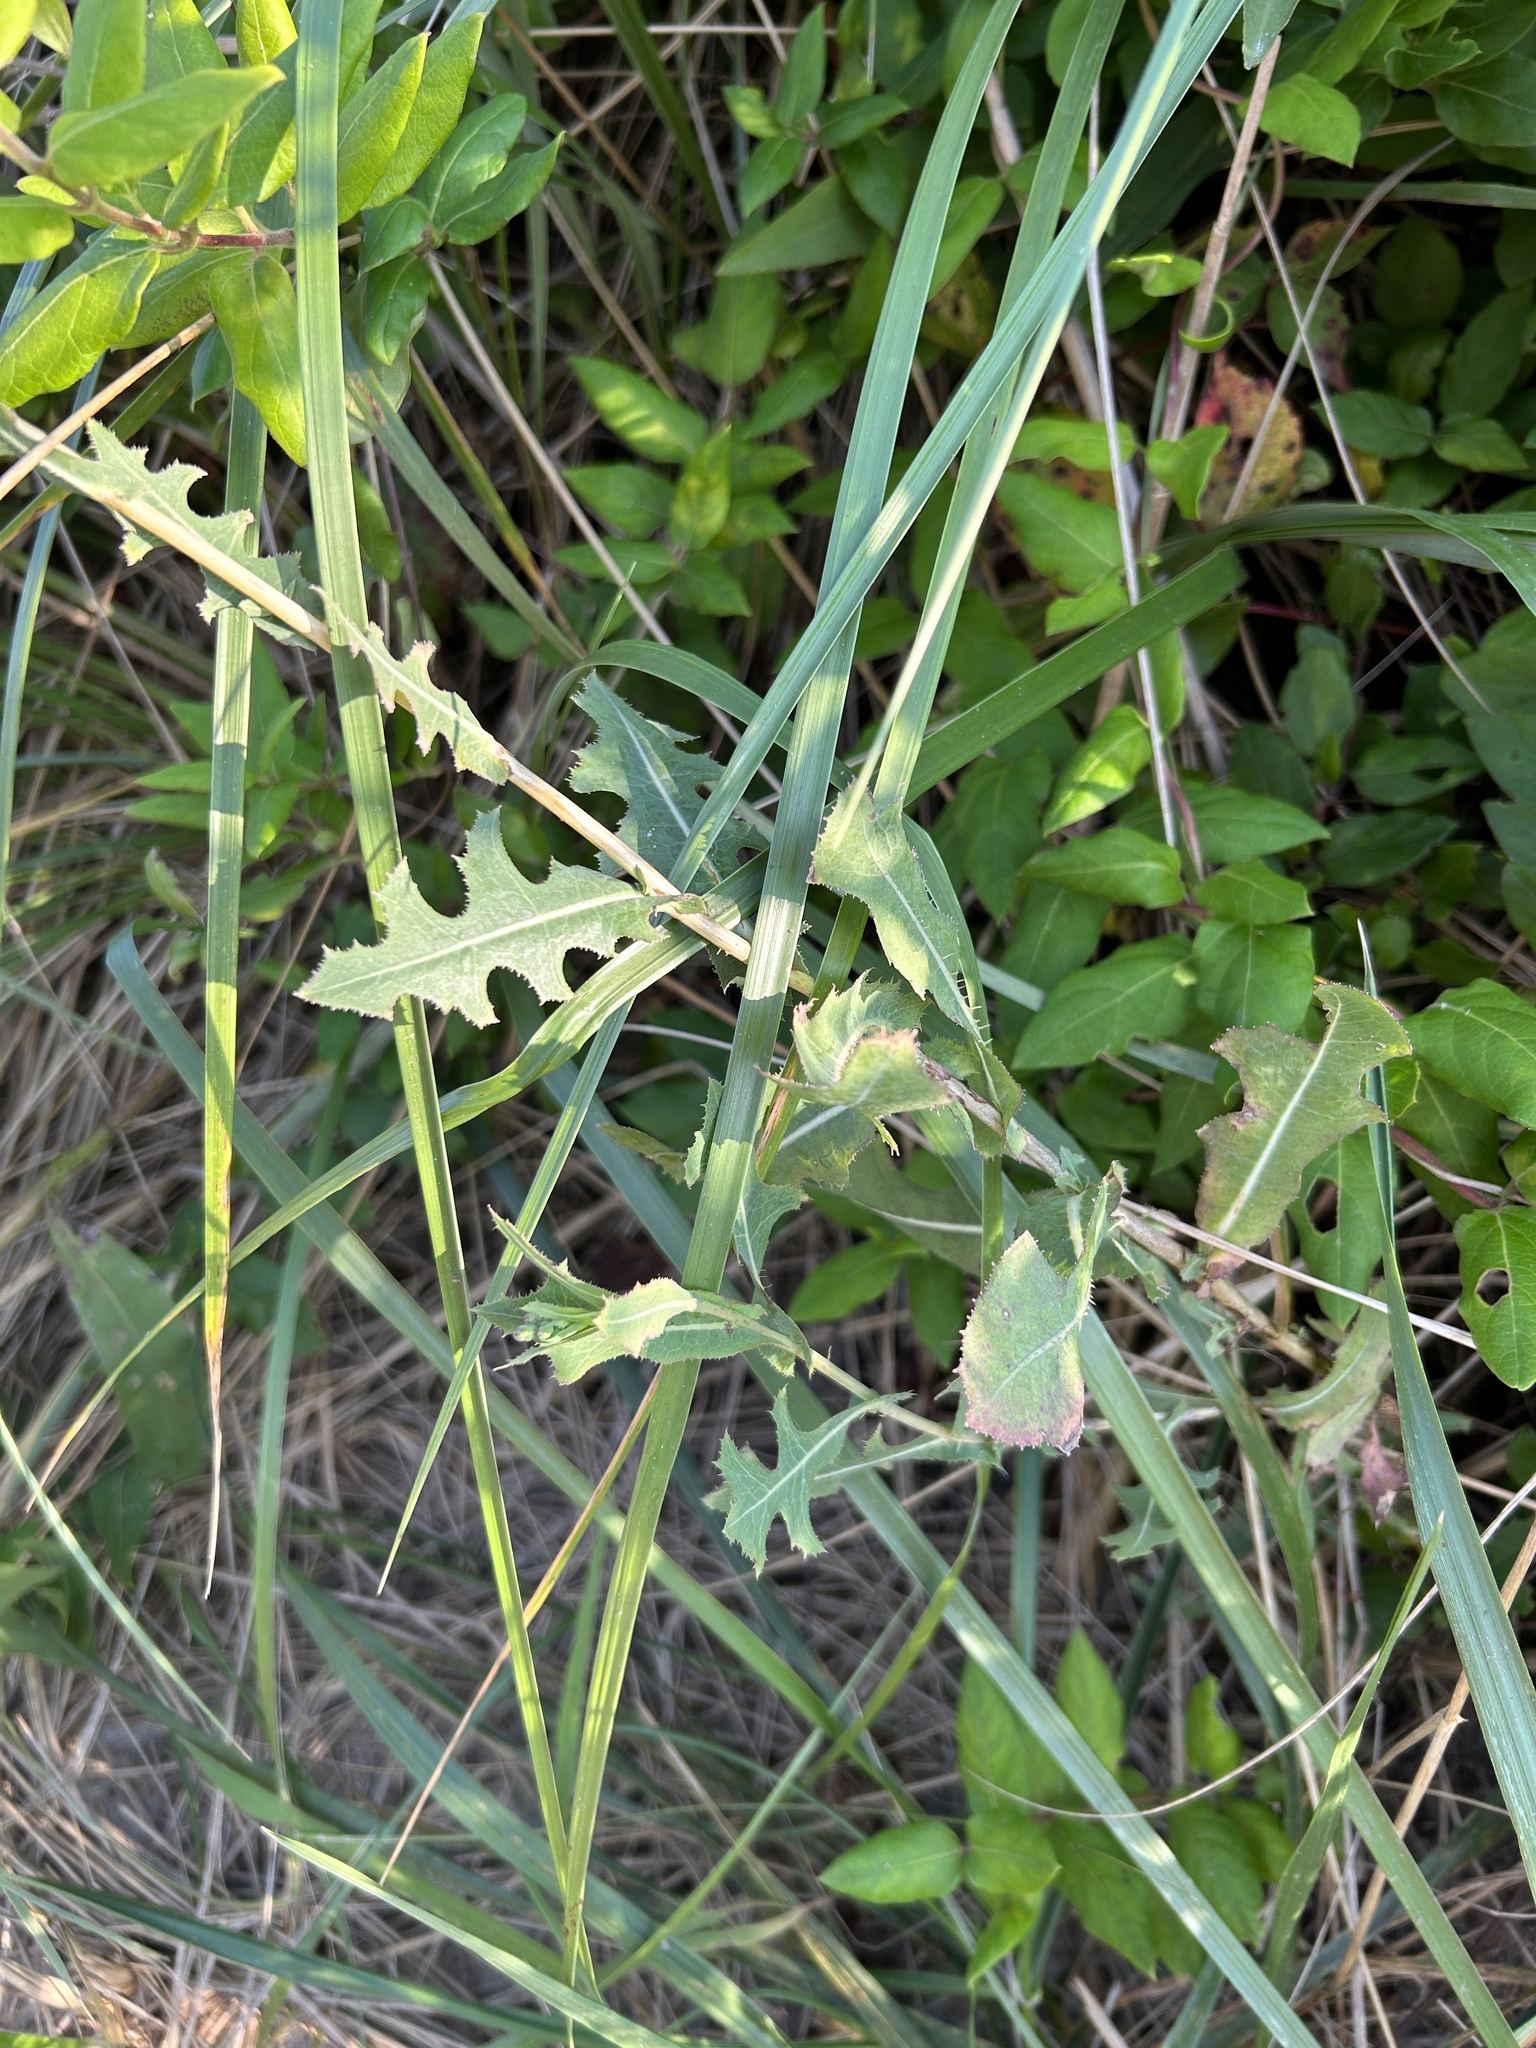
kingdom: Plantae
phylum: Tracheophyta
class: Magnoliopsida
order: Asterales
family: Asteraceae
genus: Lactuca
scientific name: Lactuca serriola
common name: Prickly lettuce
